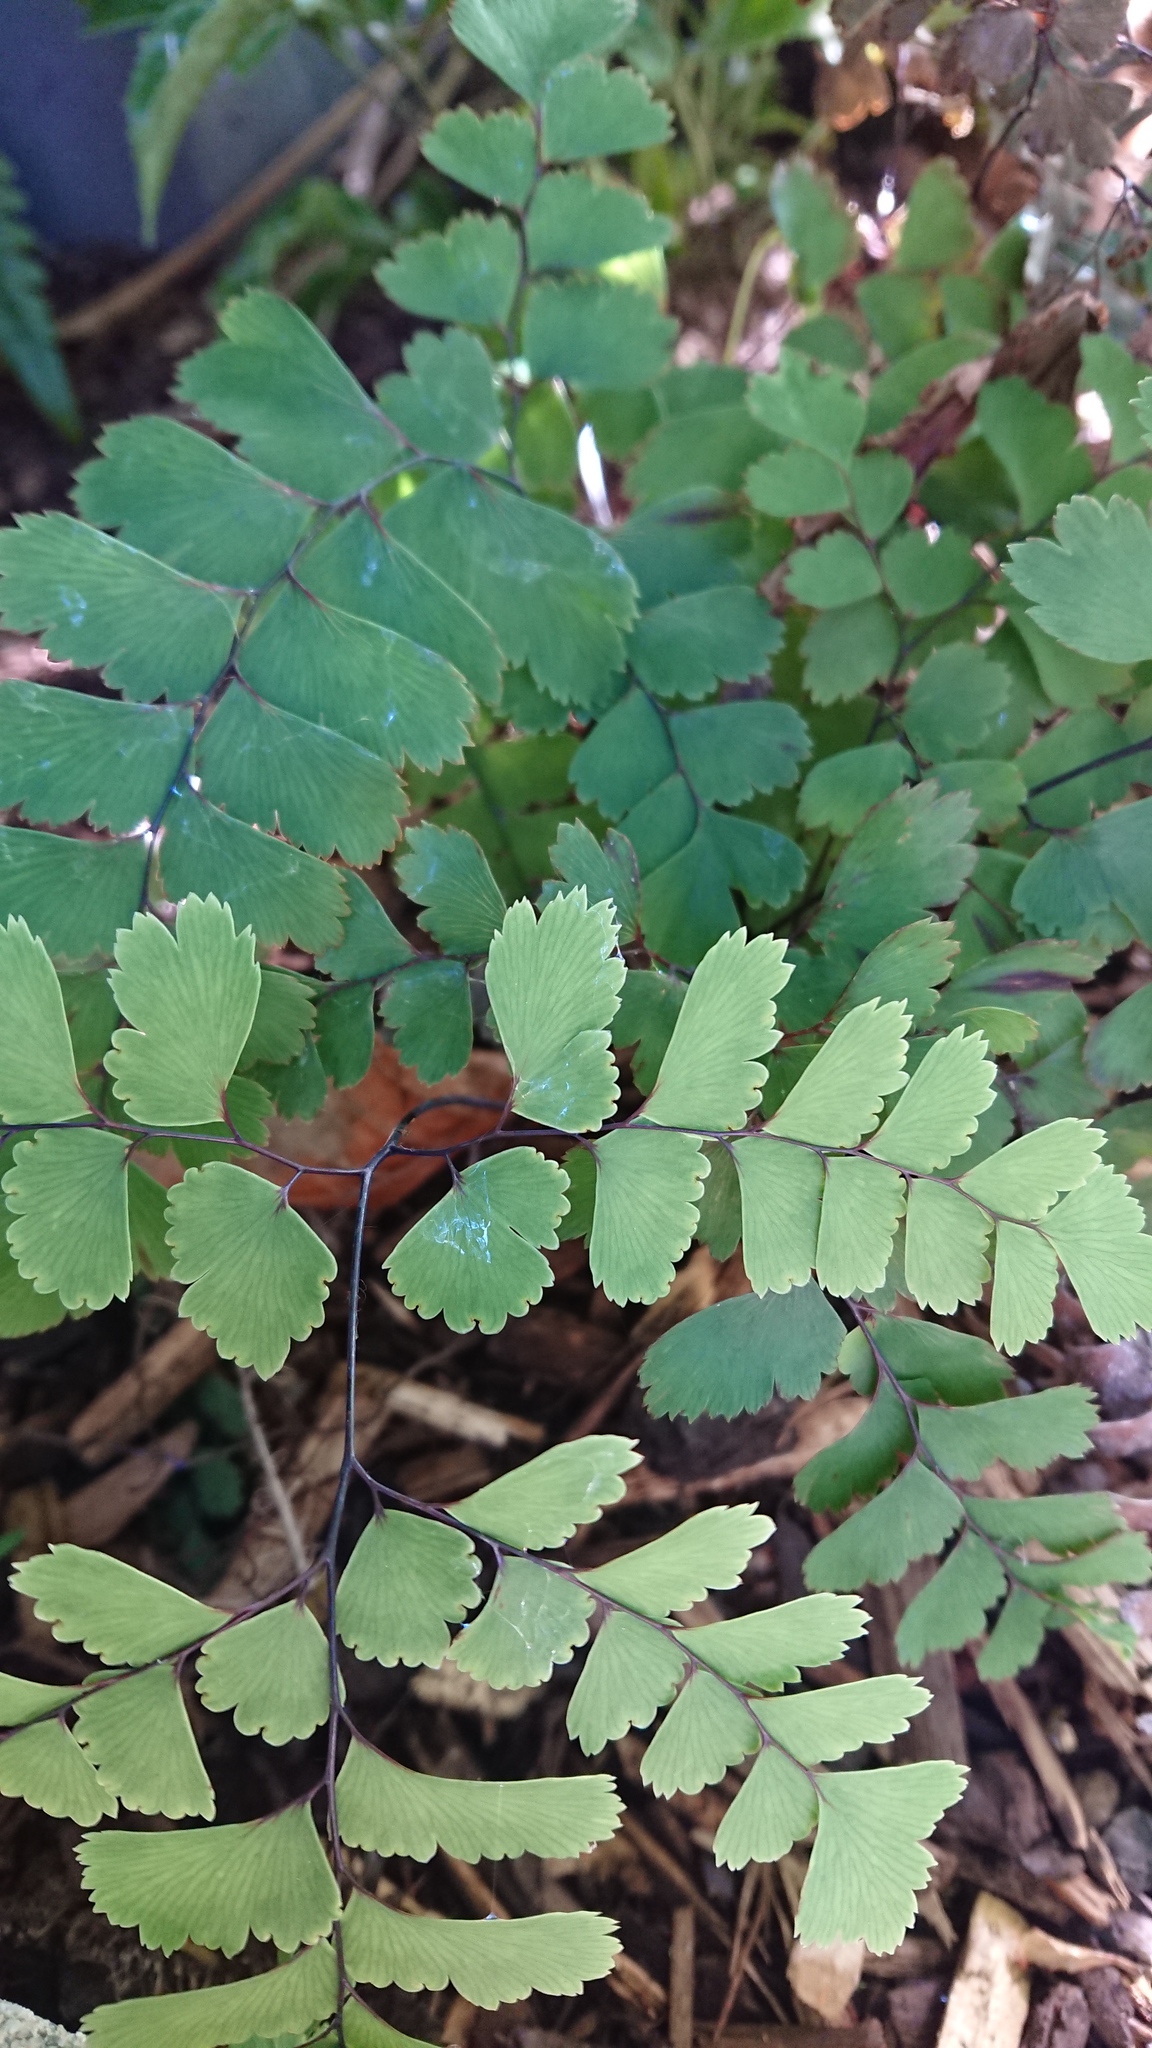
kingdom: Plantae
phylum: Tracheophyta
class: Polypodiopsida
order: Polypodiales
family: Pteridaceae
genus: Adiantum
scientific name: Adiantum cunninghamii
